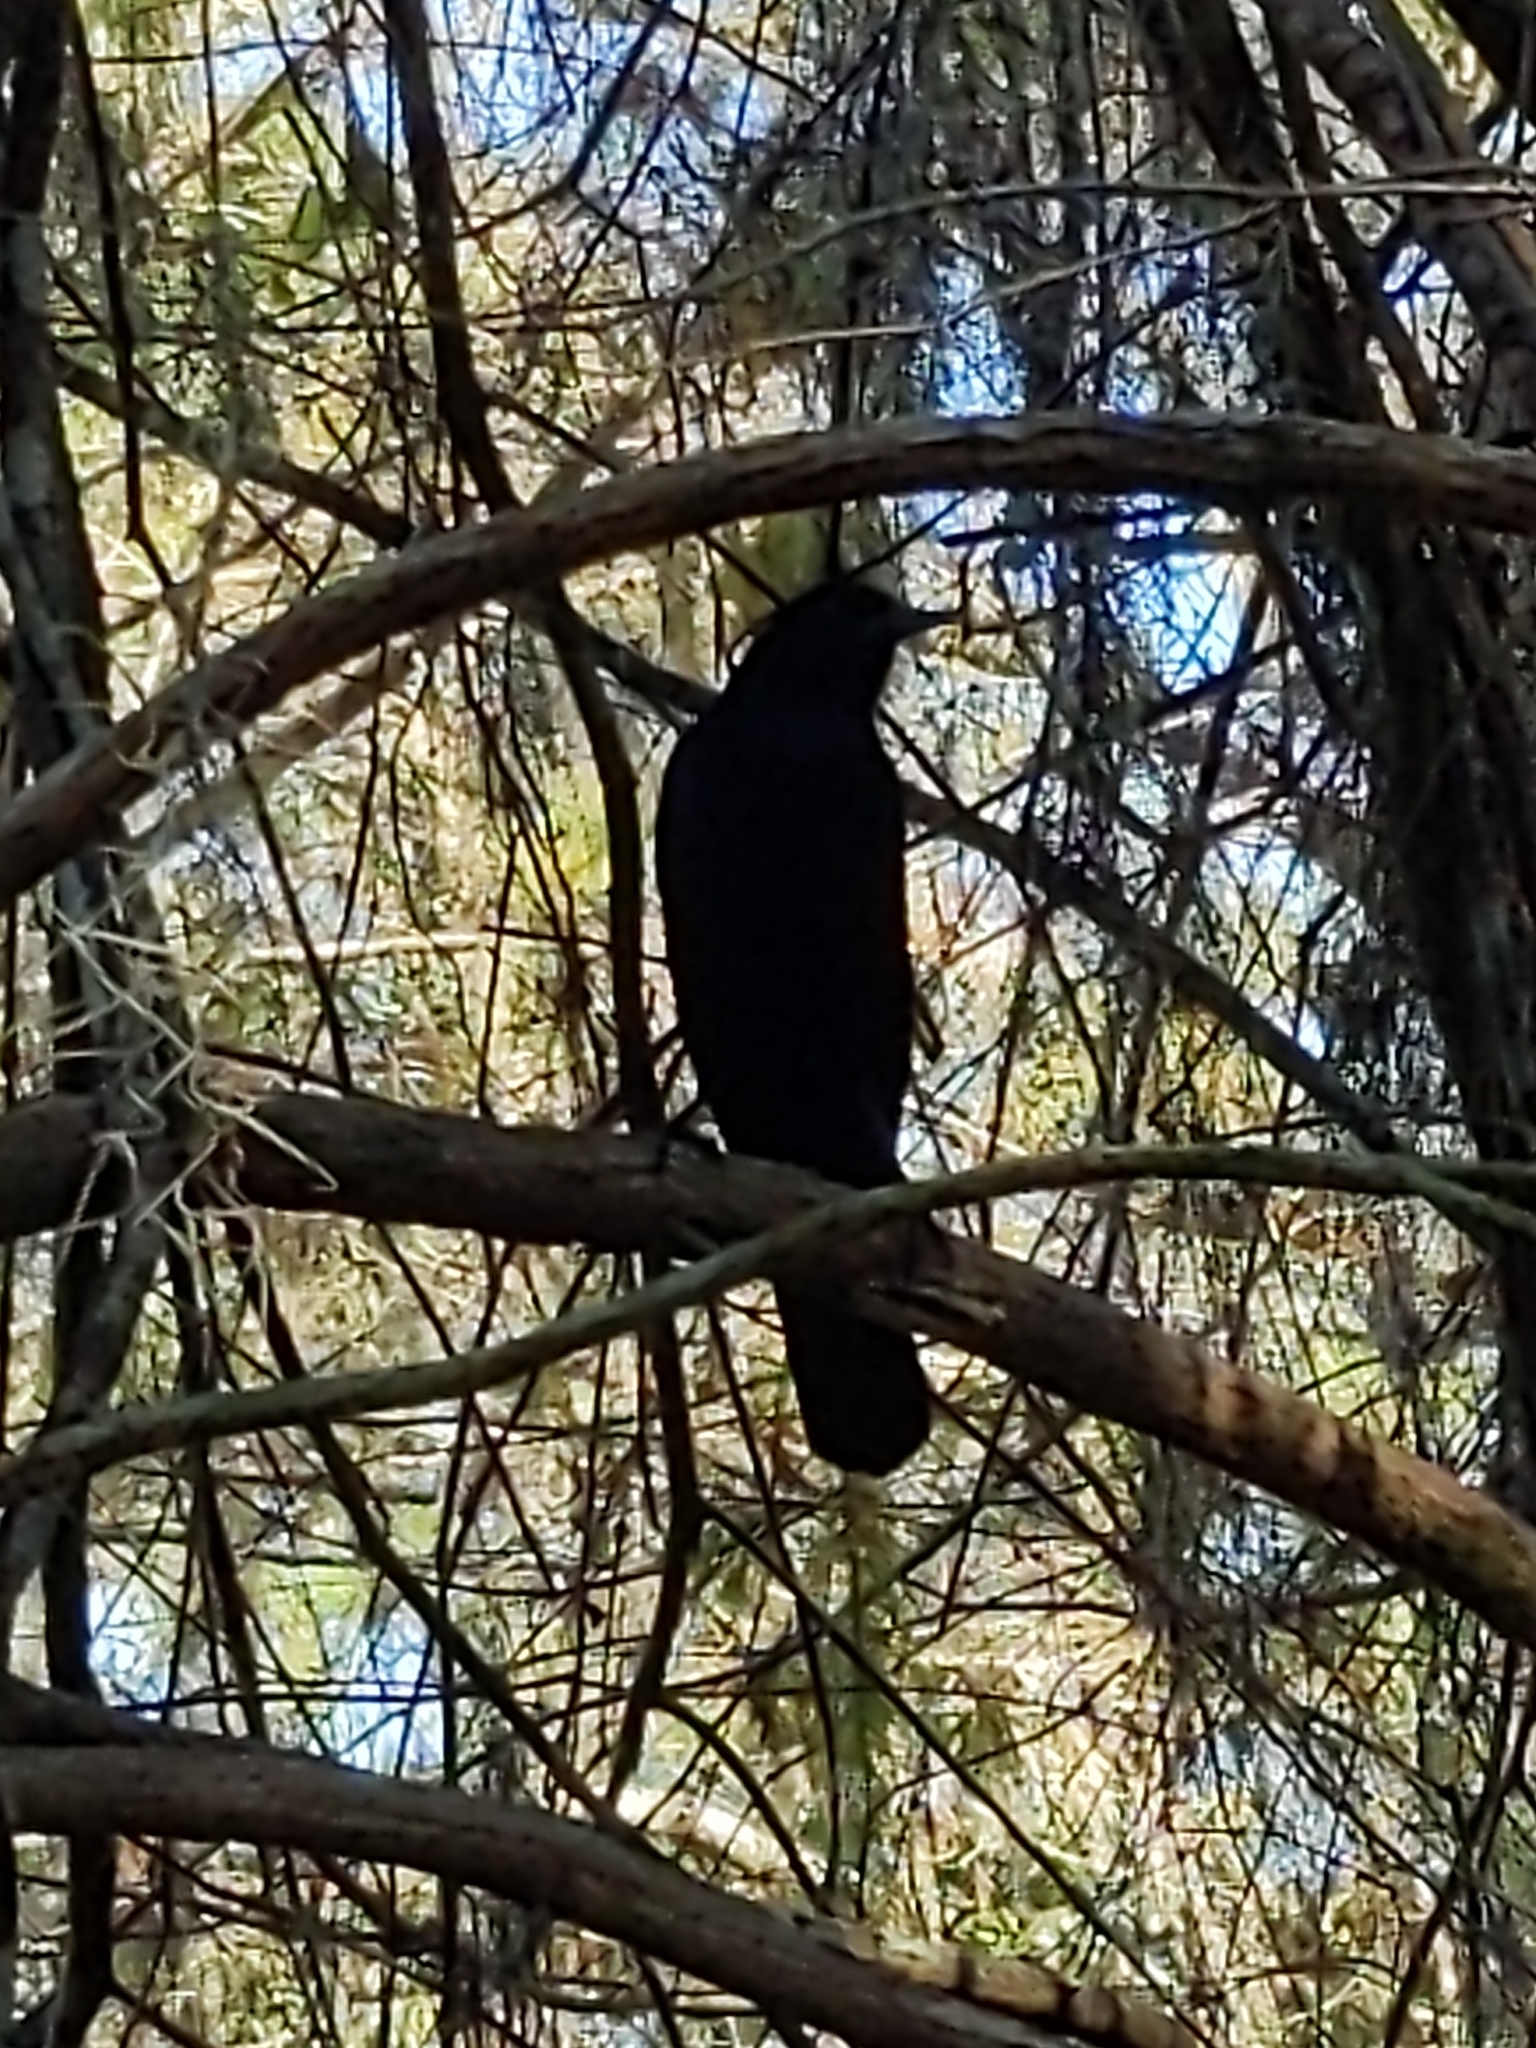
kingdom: Animalia
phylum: Chordata
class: Aves
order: Passeriformes
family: Icteridae
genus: Quiscalus
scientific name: Quiscalus major
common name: Boat-tailed grackle
